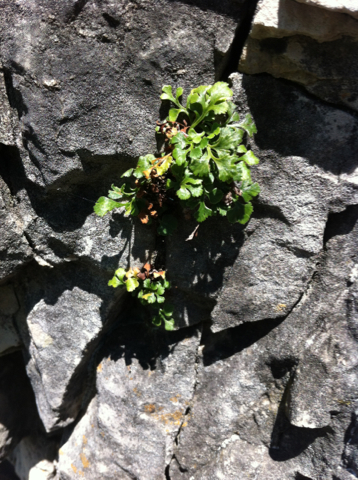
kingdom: Plantae
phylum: Tracheophyta
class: Polypodiopsida
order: Polypodiales
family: Aspleniaceae
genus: Asplenium
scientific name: Asplenium ruta-muraria
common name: Wall-rue
